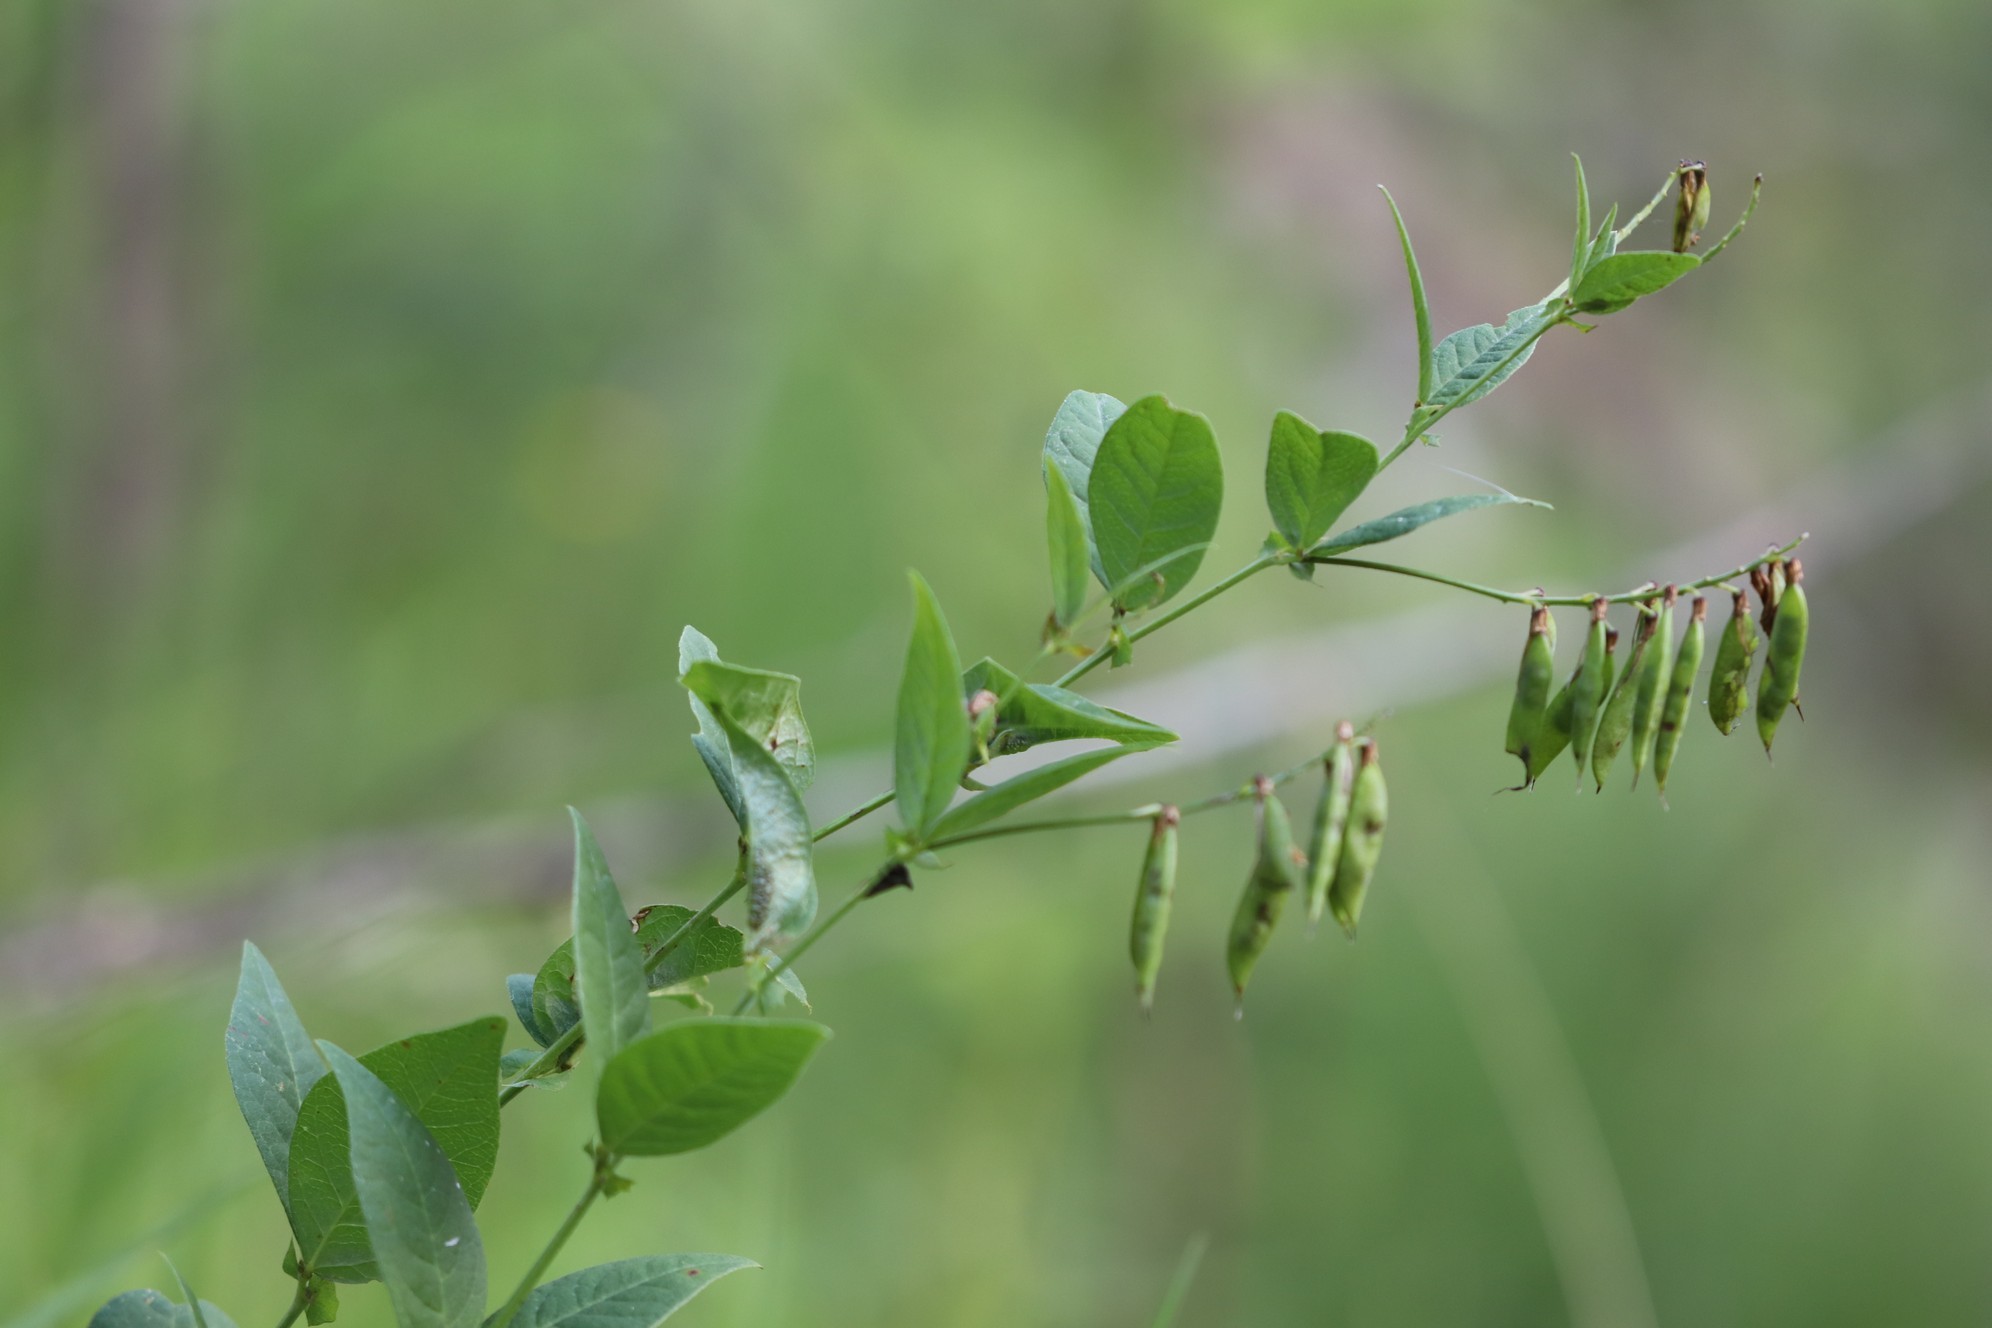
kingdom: Plantae
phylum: Tracheophyta
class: Magnoliopsida
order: Fabales
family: Fabaceae
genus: Vicia
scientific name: Vicia unijuga
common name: Two-leaf vetch
